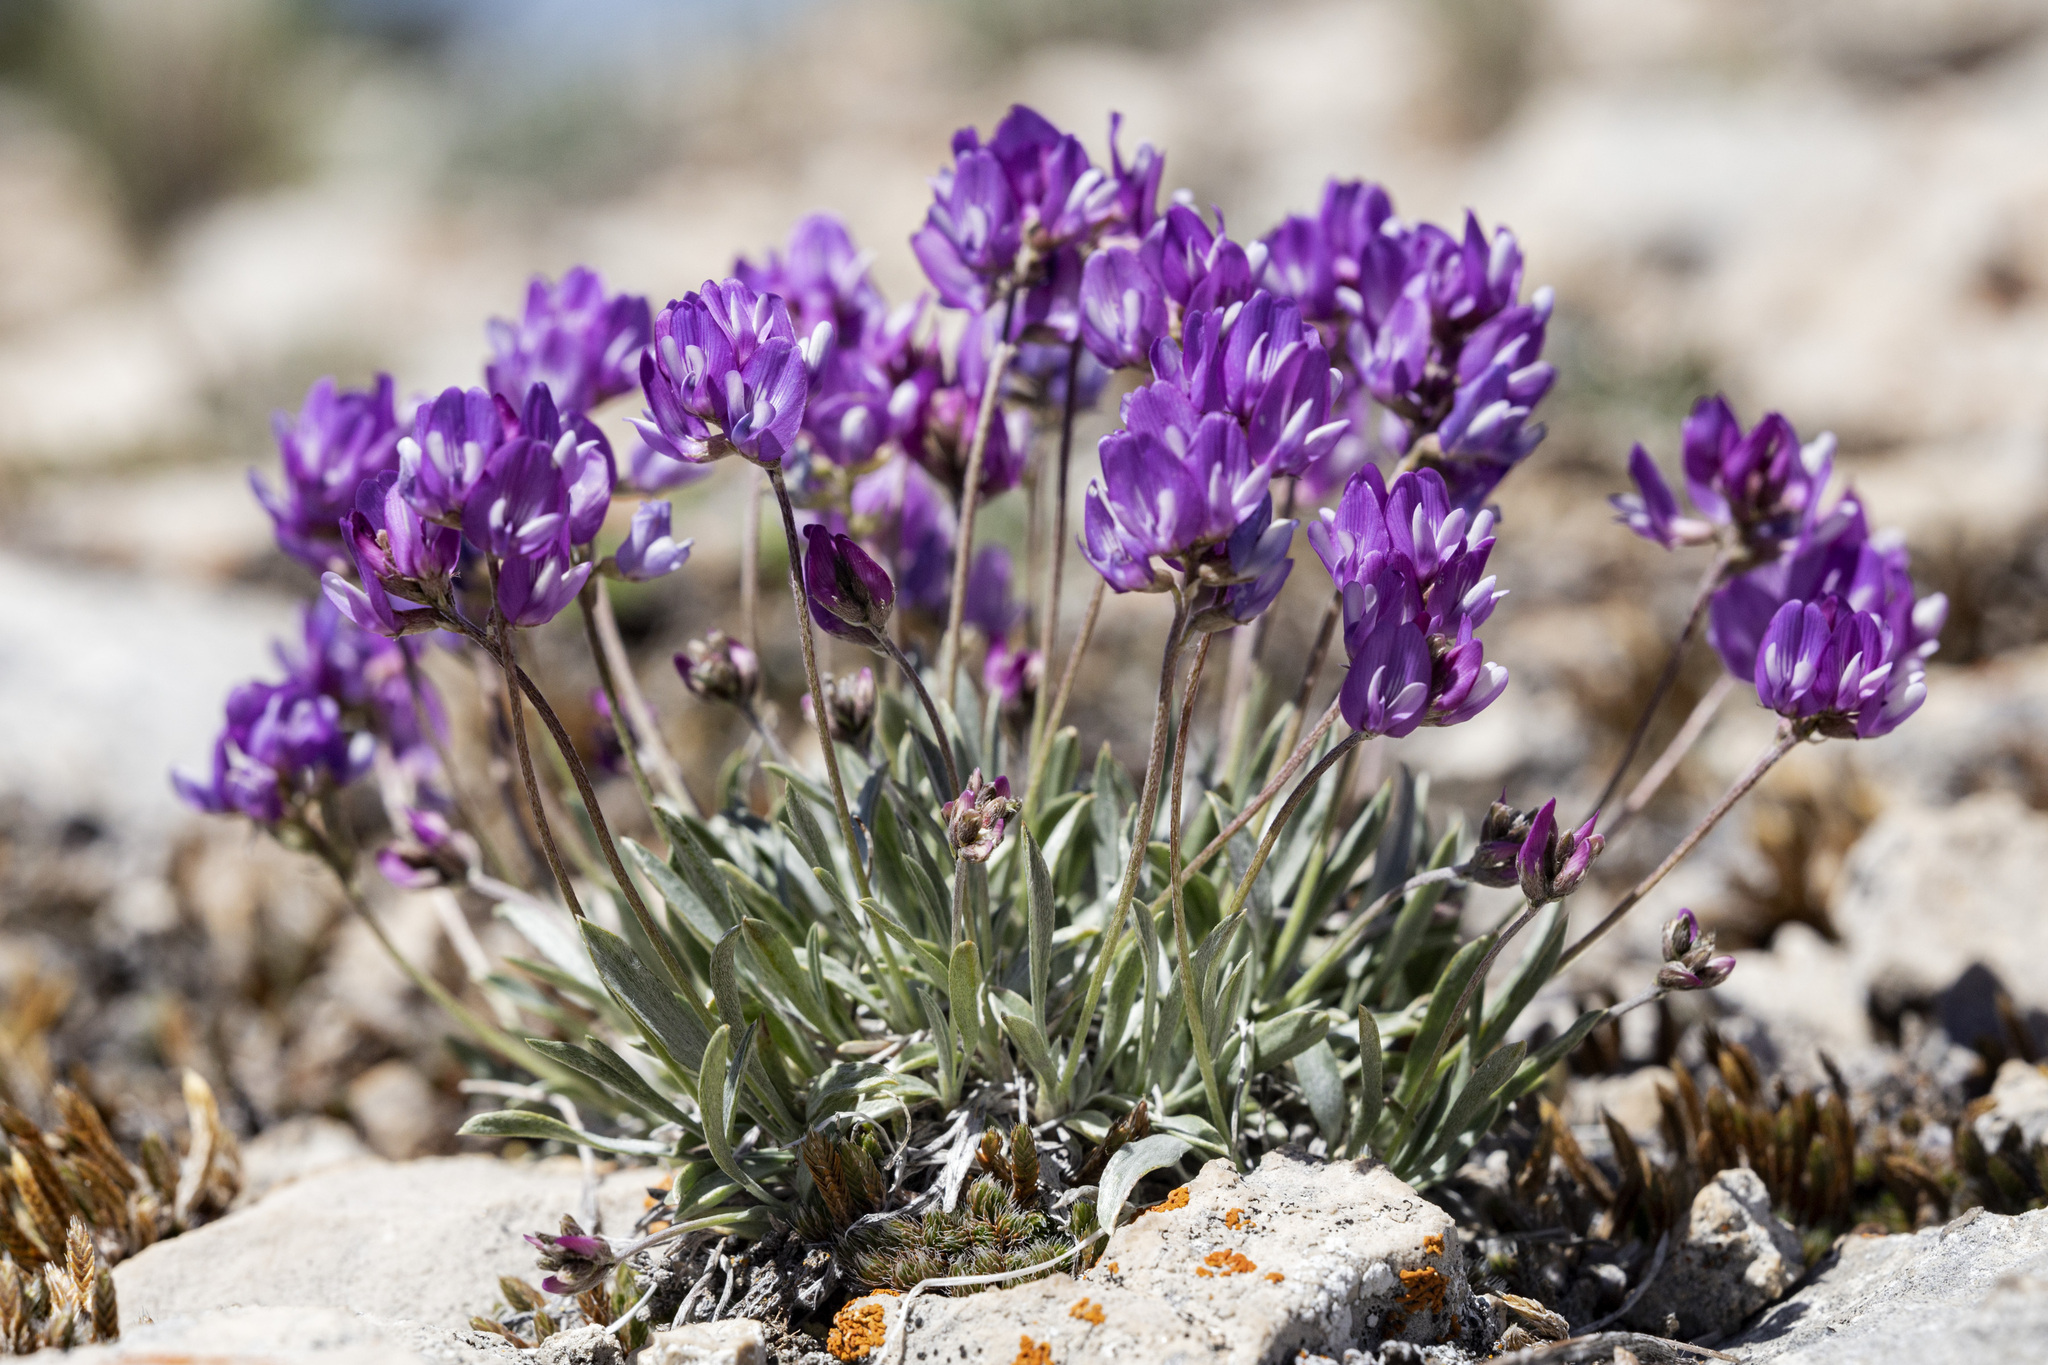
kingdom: Plantae
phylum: Tracheophyta
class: Magnoliopsida
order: Fabales
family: Fabaceae
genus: Astragalus
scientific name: Astragalus spatulatus
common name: Draba milk-vetch
